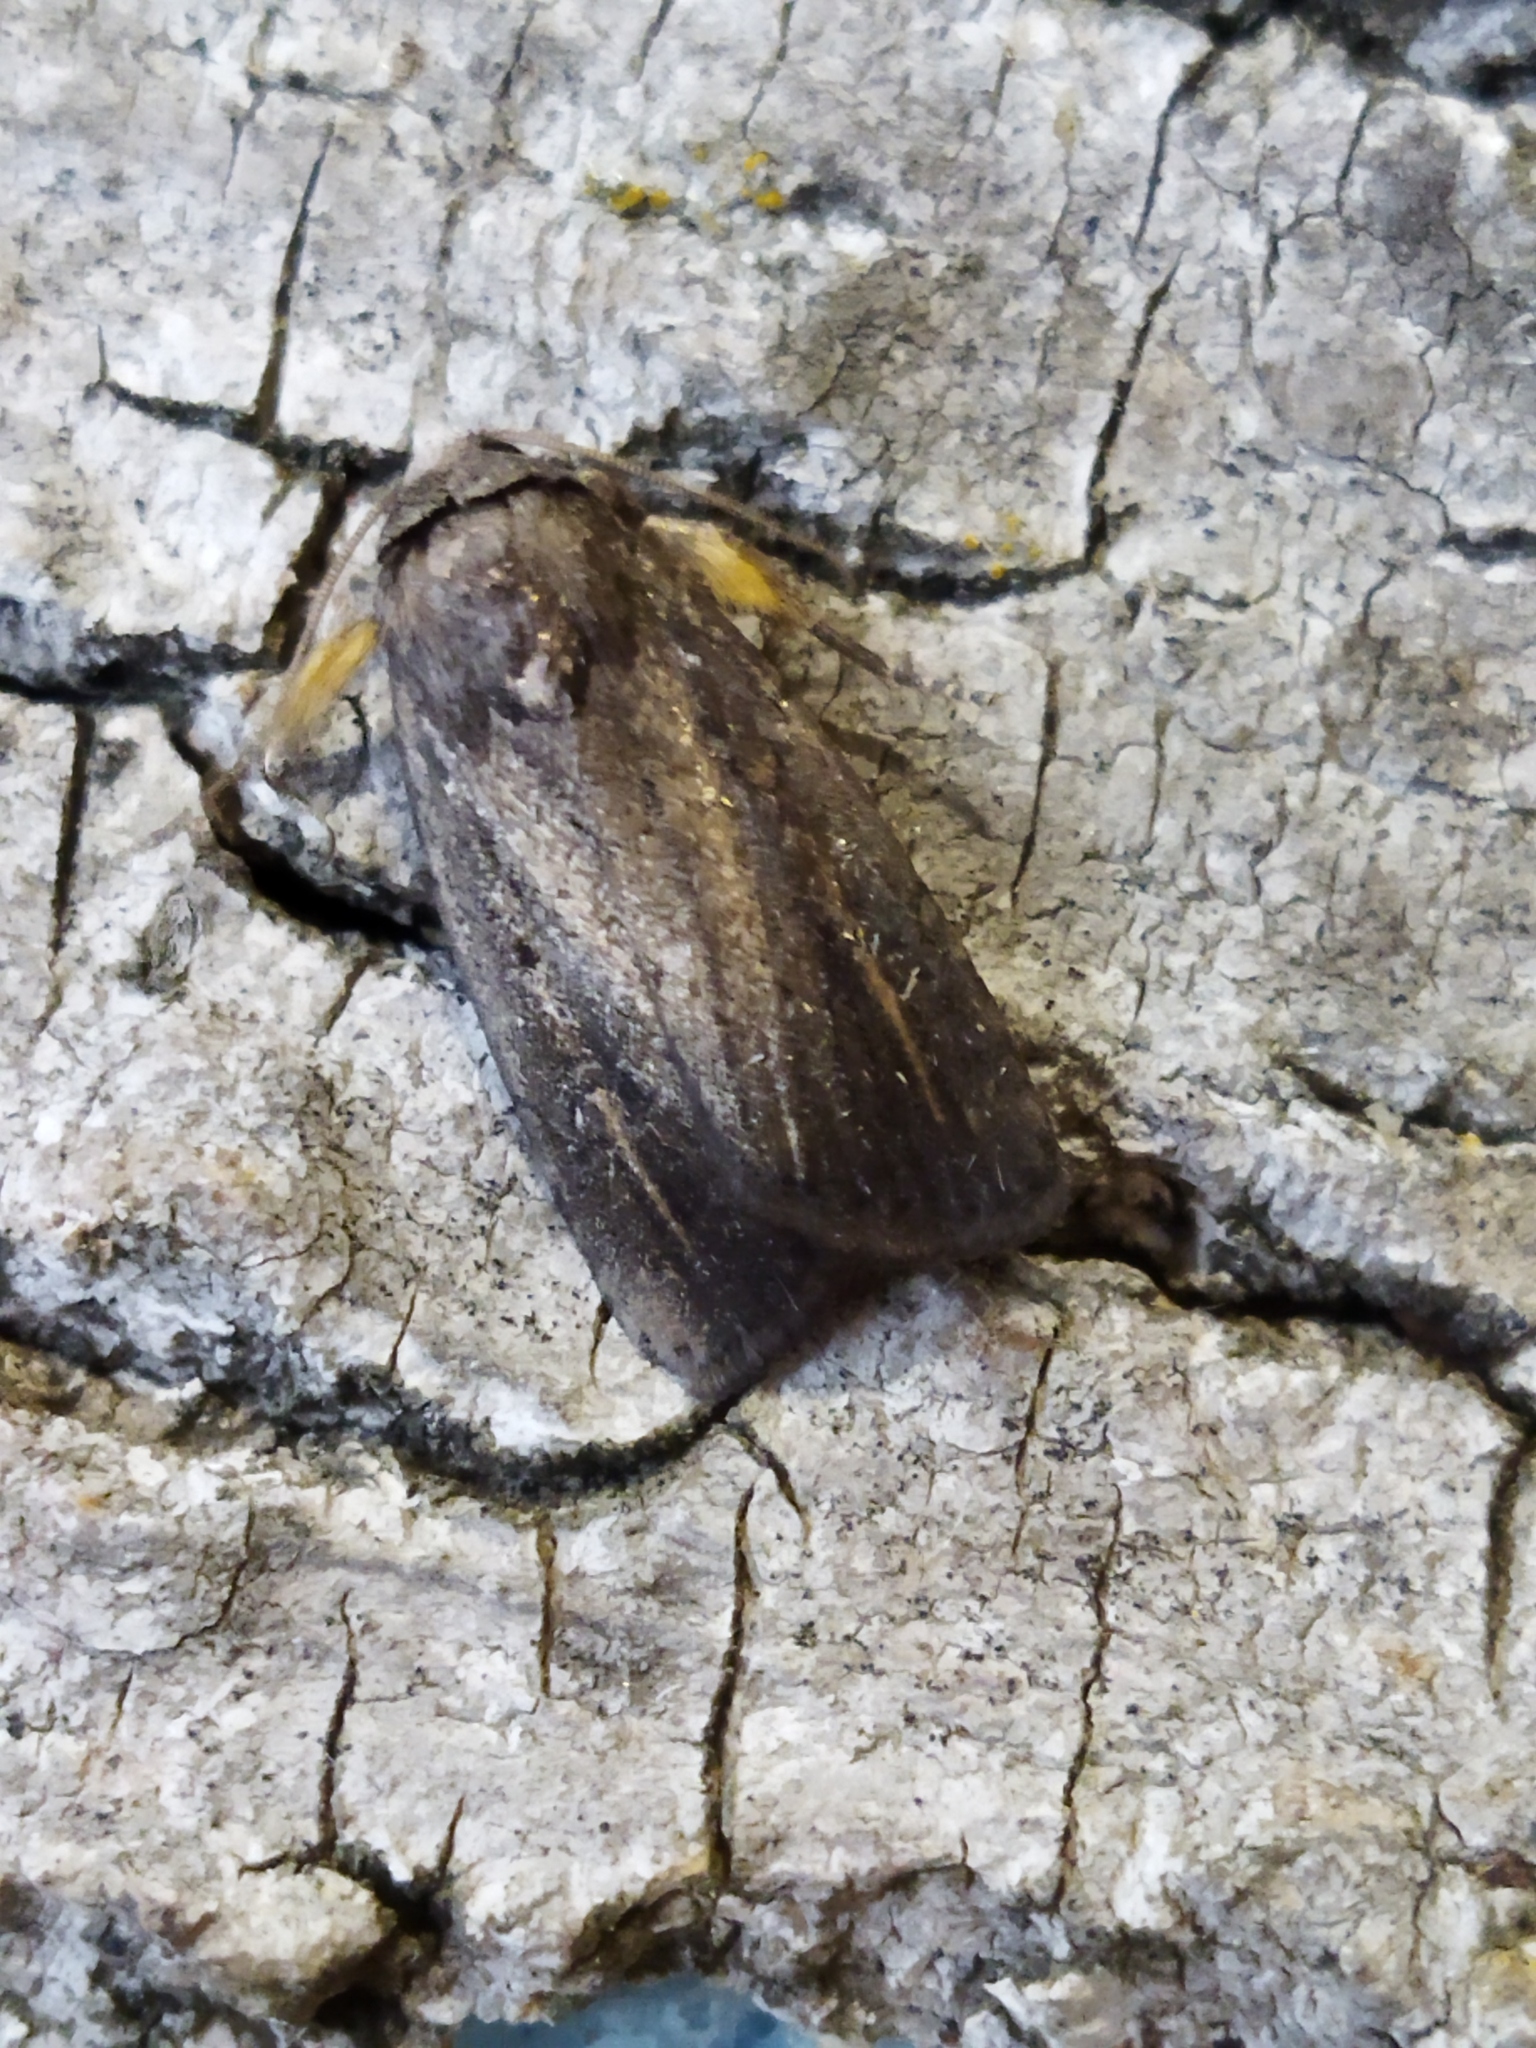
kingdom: Animalia
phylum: Arthropoda
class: Insecta
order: Lepidoptera
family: Noctuidae
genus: Athetis
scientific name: Athetis hospes
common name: Porter's rustic
